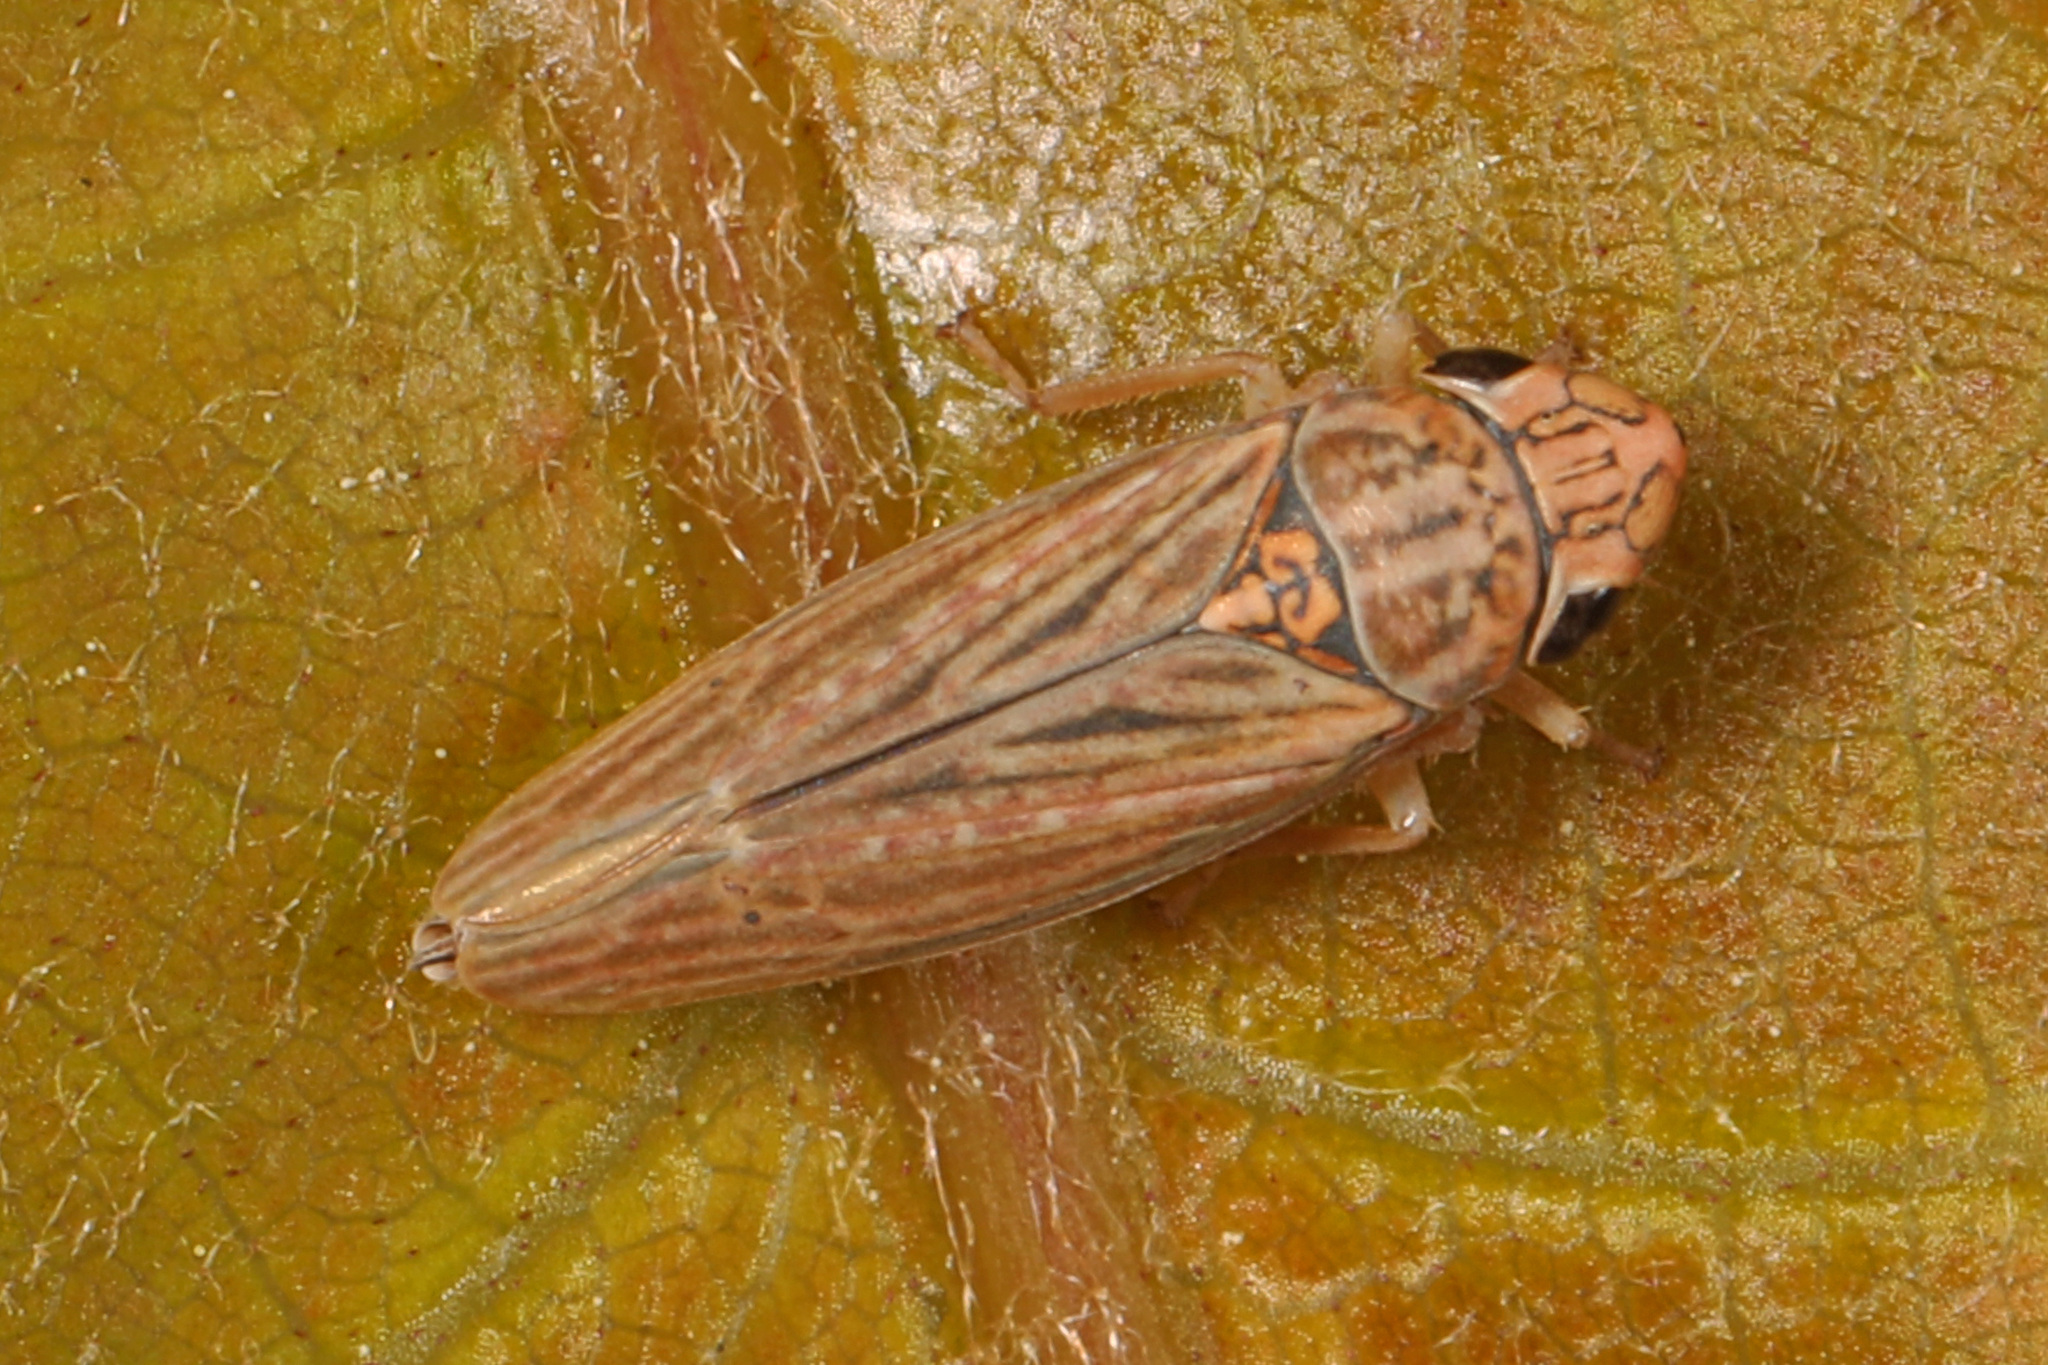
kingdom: Animalia
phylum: Arthropoda
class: Insecta
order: Hemiptera
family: Cicadellidae
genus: Neokolla
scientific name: Neokolla hieroglyphica
